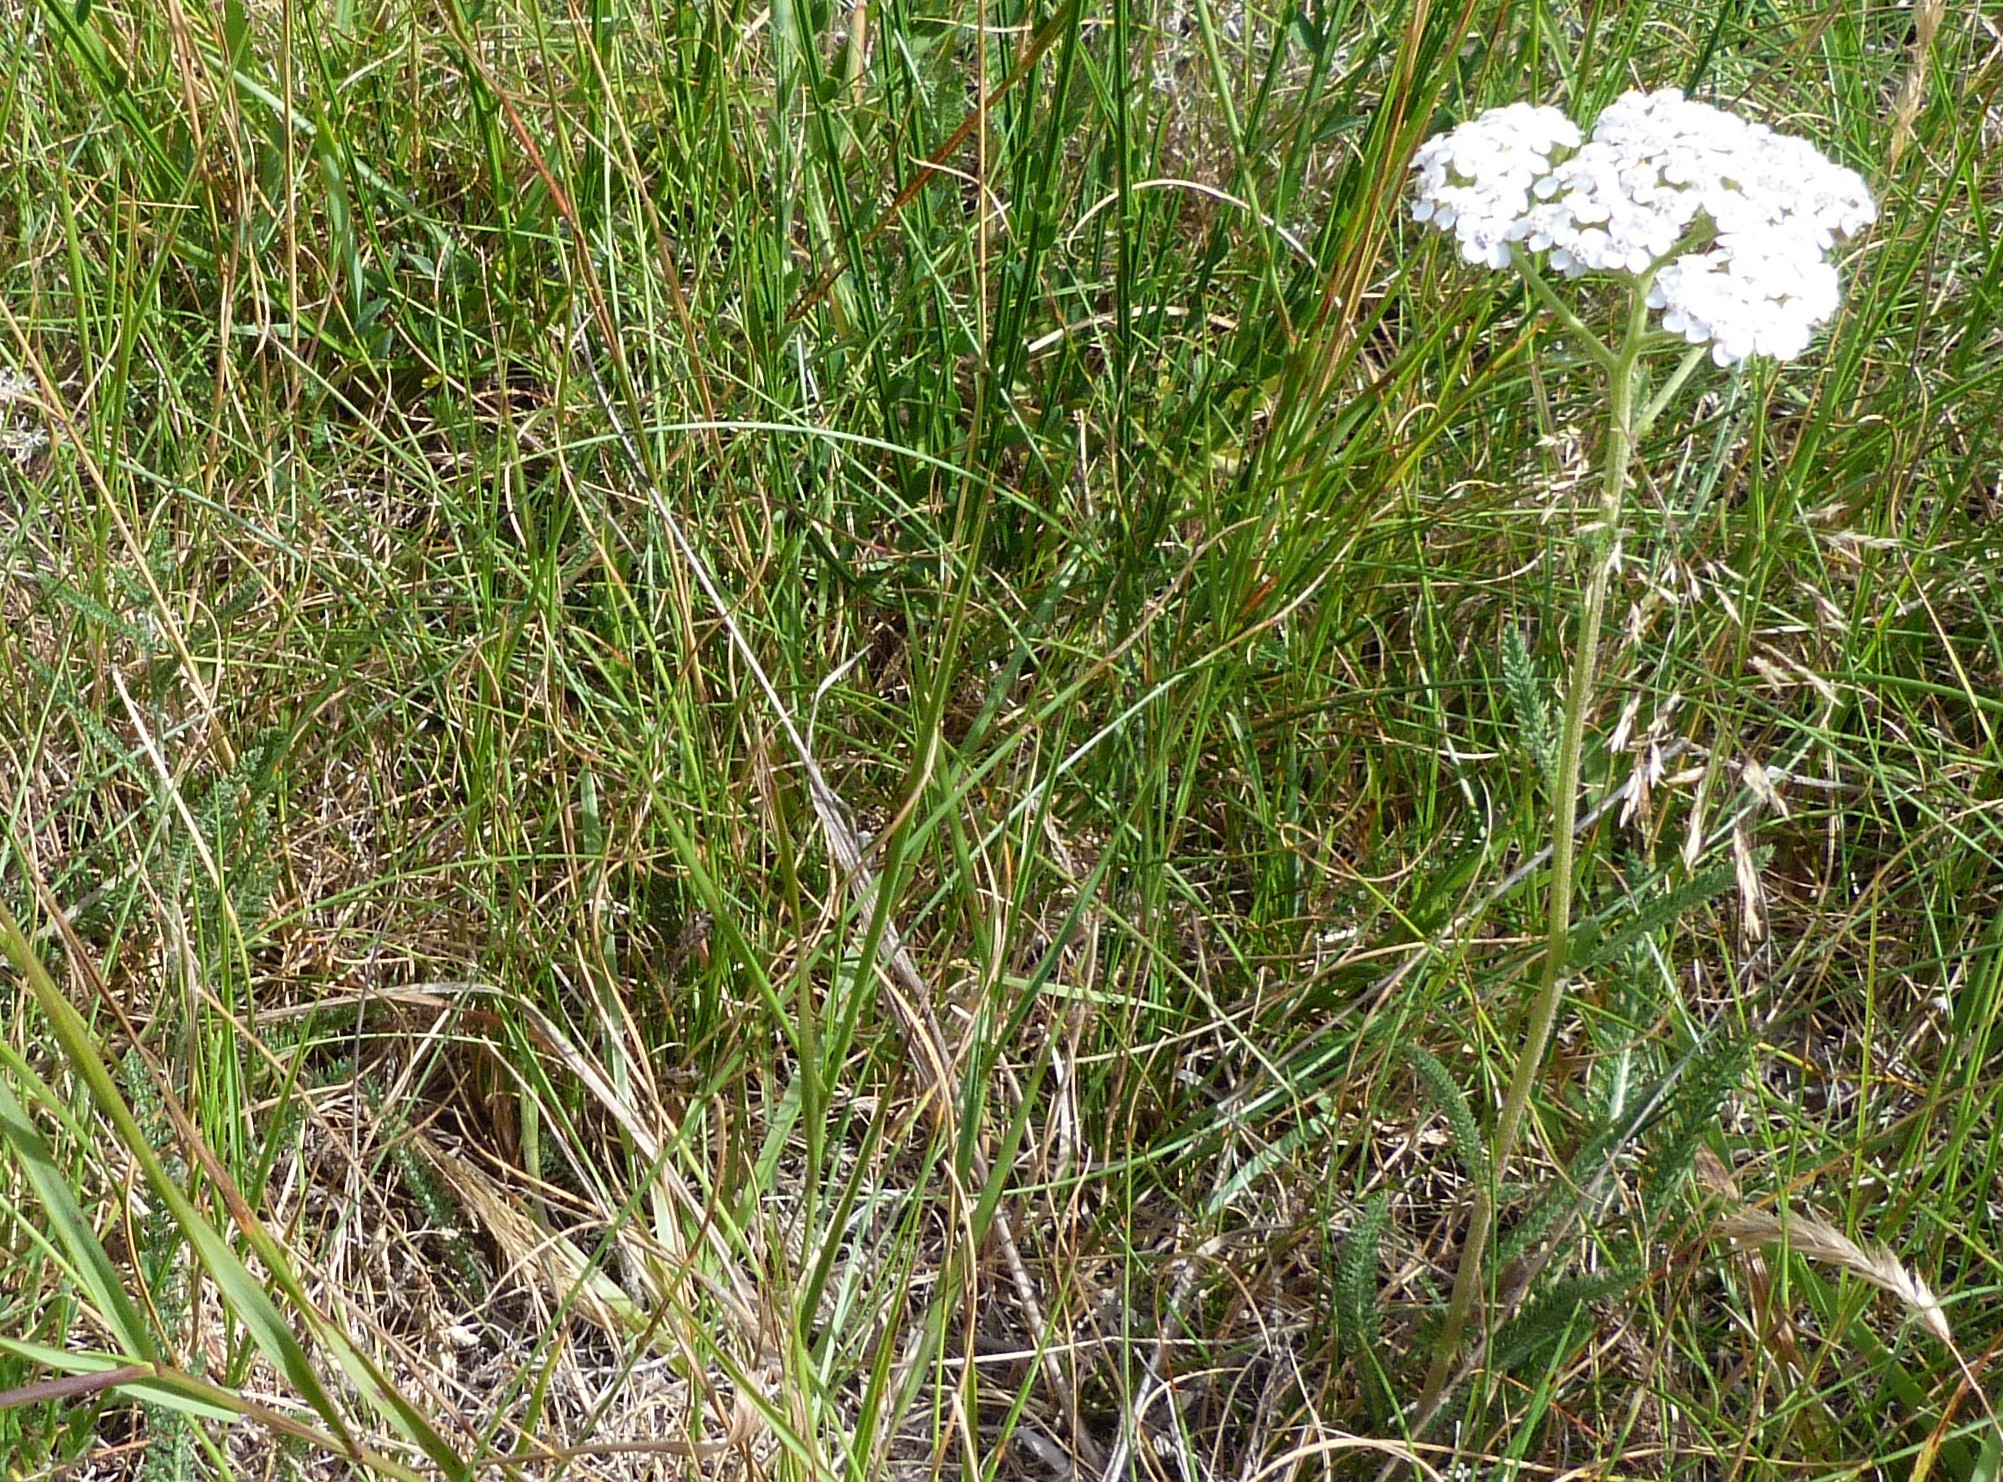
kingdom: Plantae
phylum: Tracheophyta
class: Magnoliopsida
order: Asterales
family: Asteraceae
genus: Achillea
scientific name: Achillea millefolium
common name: Yarrow
